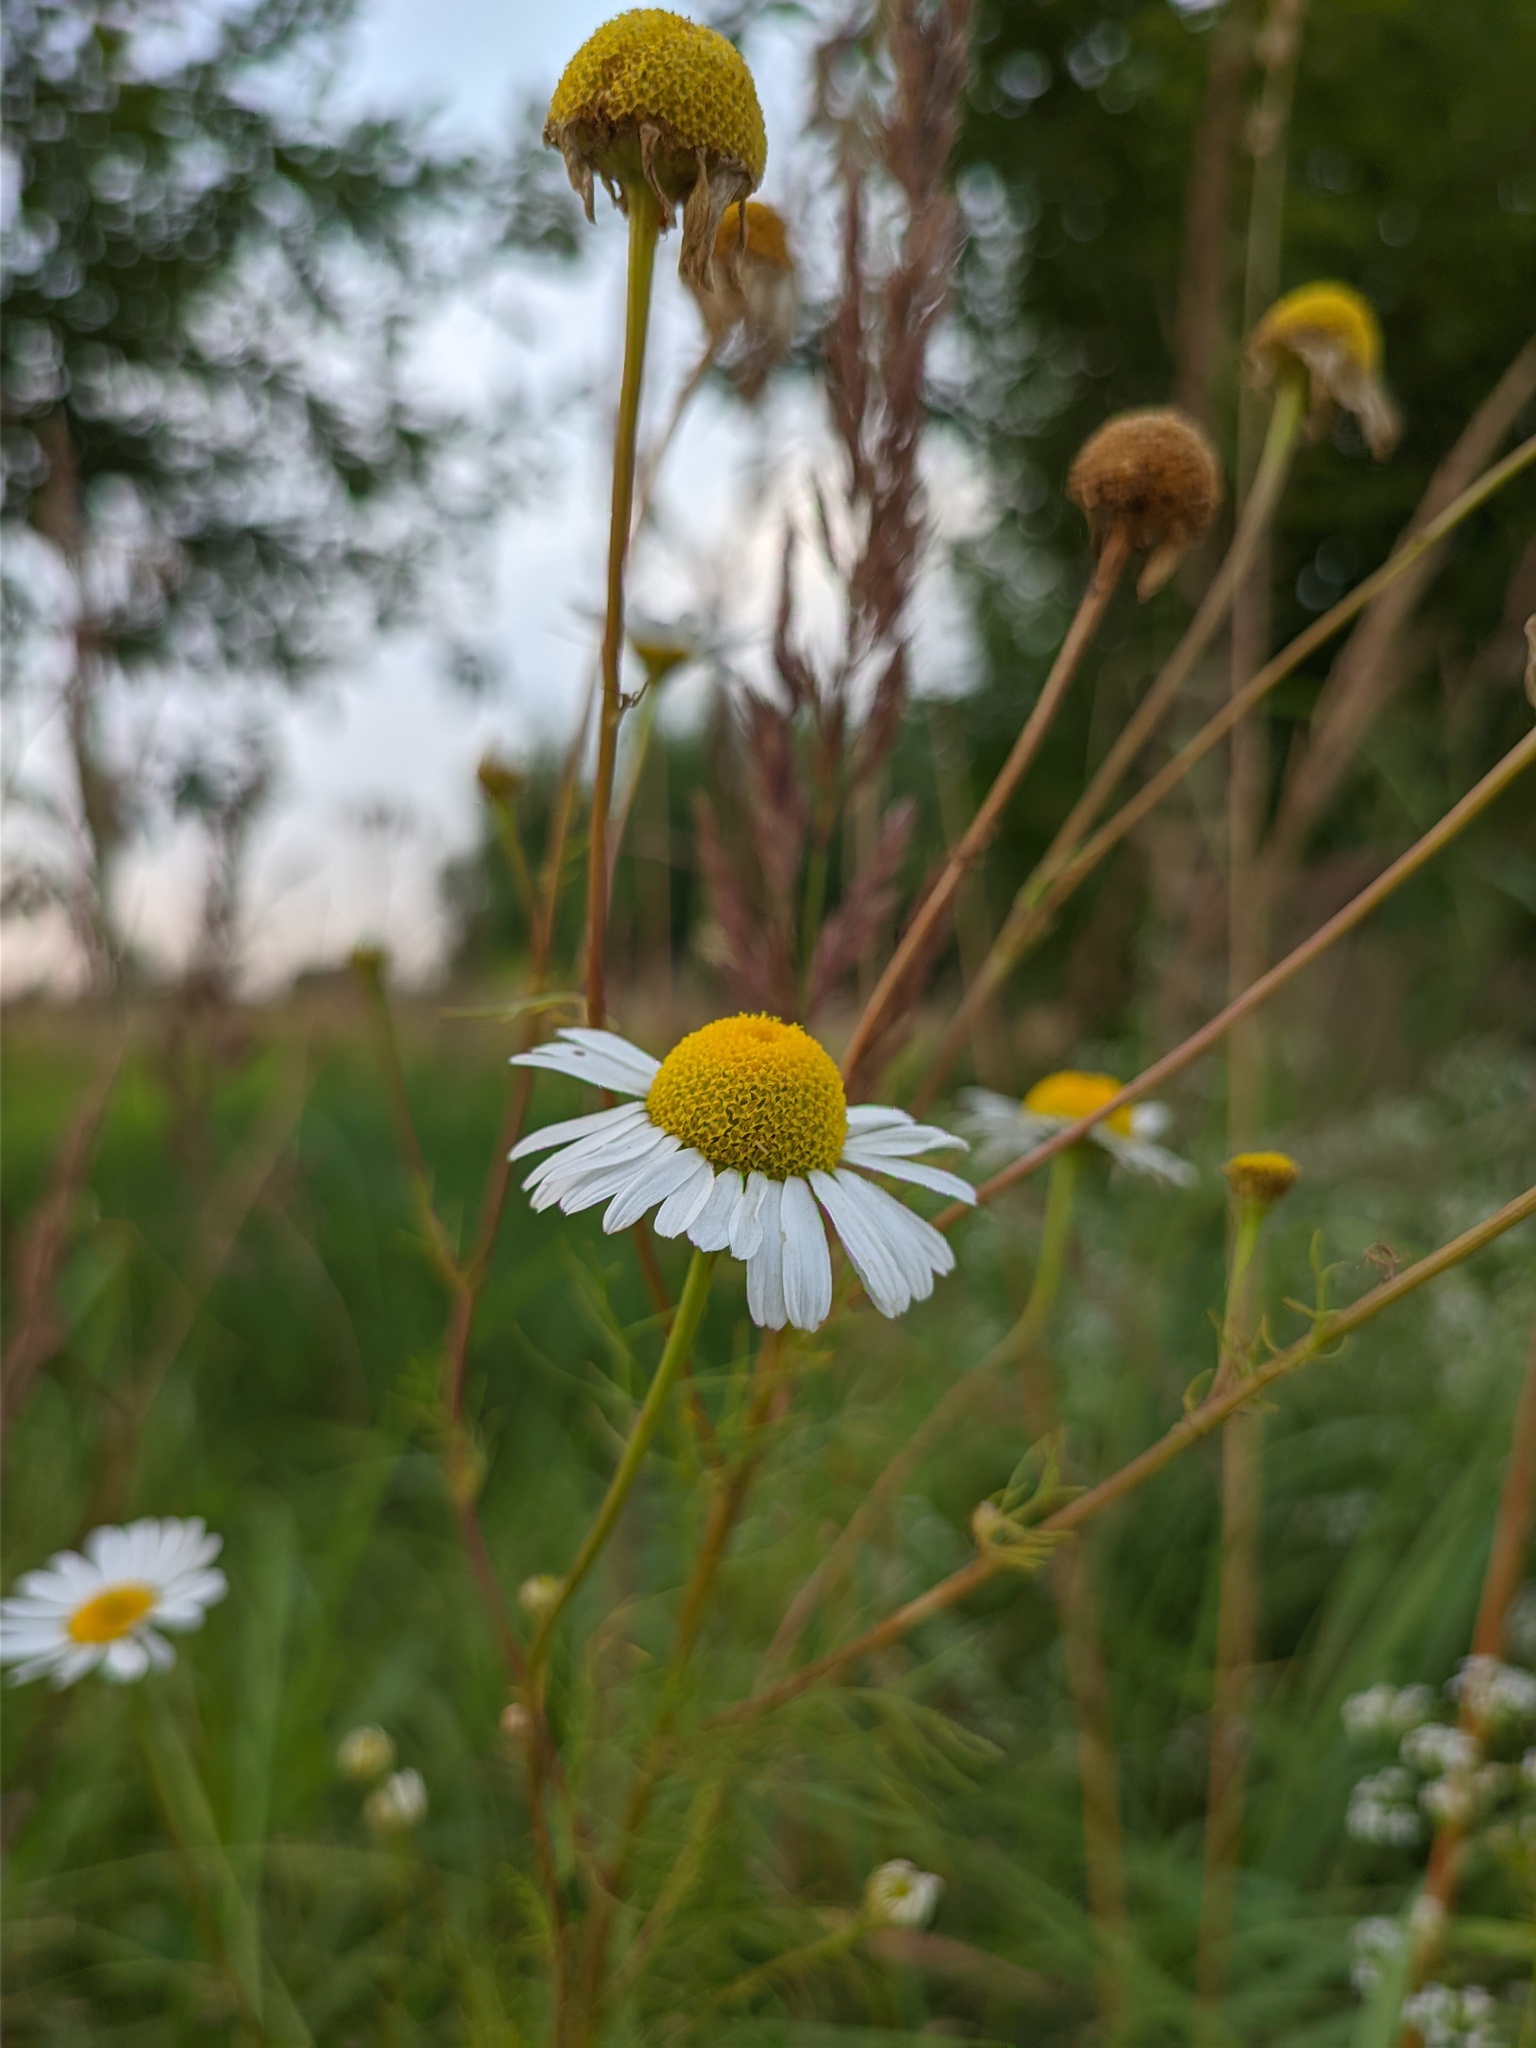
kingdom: Plantae
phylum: Tracheophyta
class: Magnoliopsida
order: Asterales
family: Asteraceae
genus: Tripleurospermum
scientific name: Tripleurospermum inodorum
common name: Scentless mayweed
